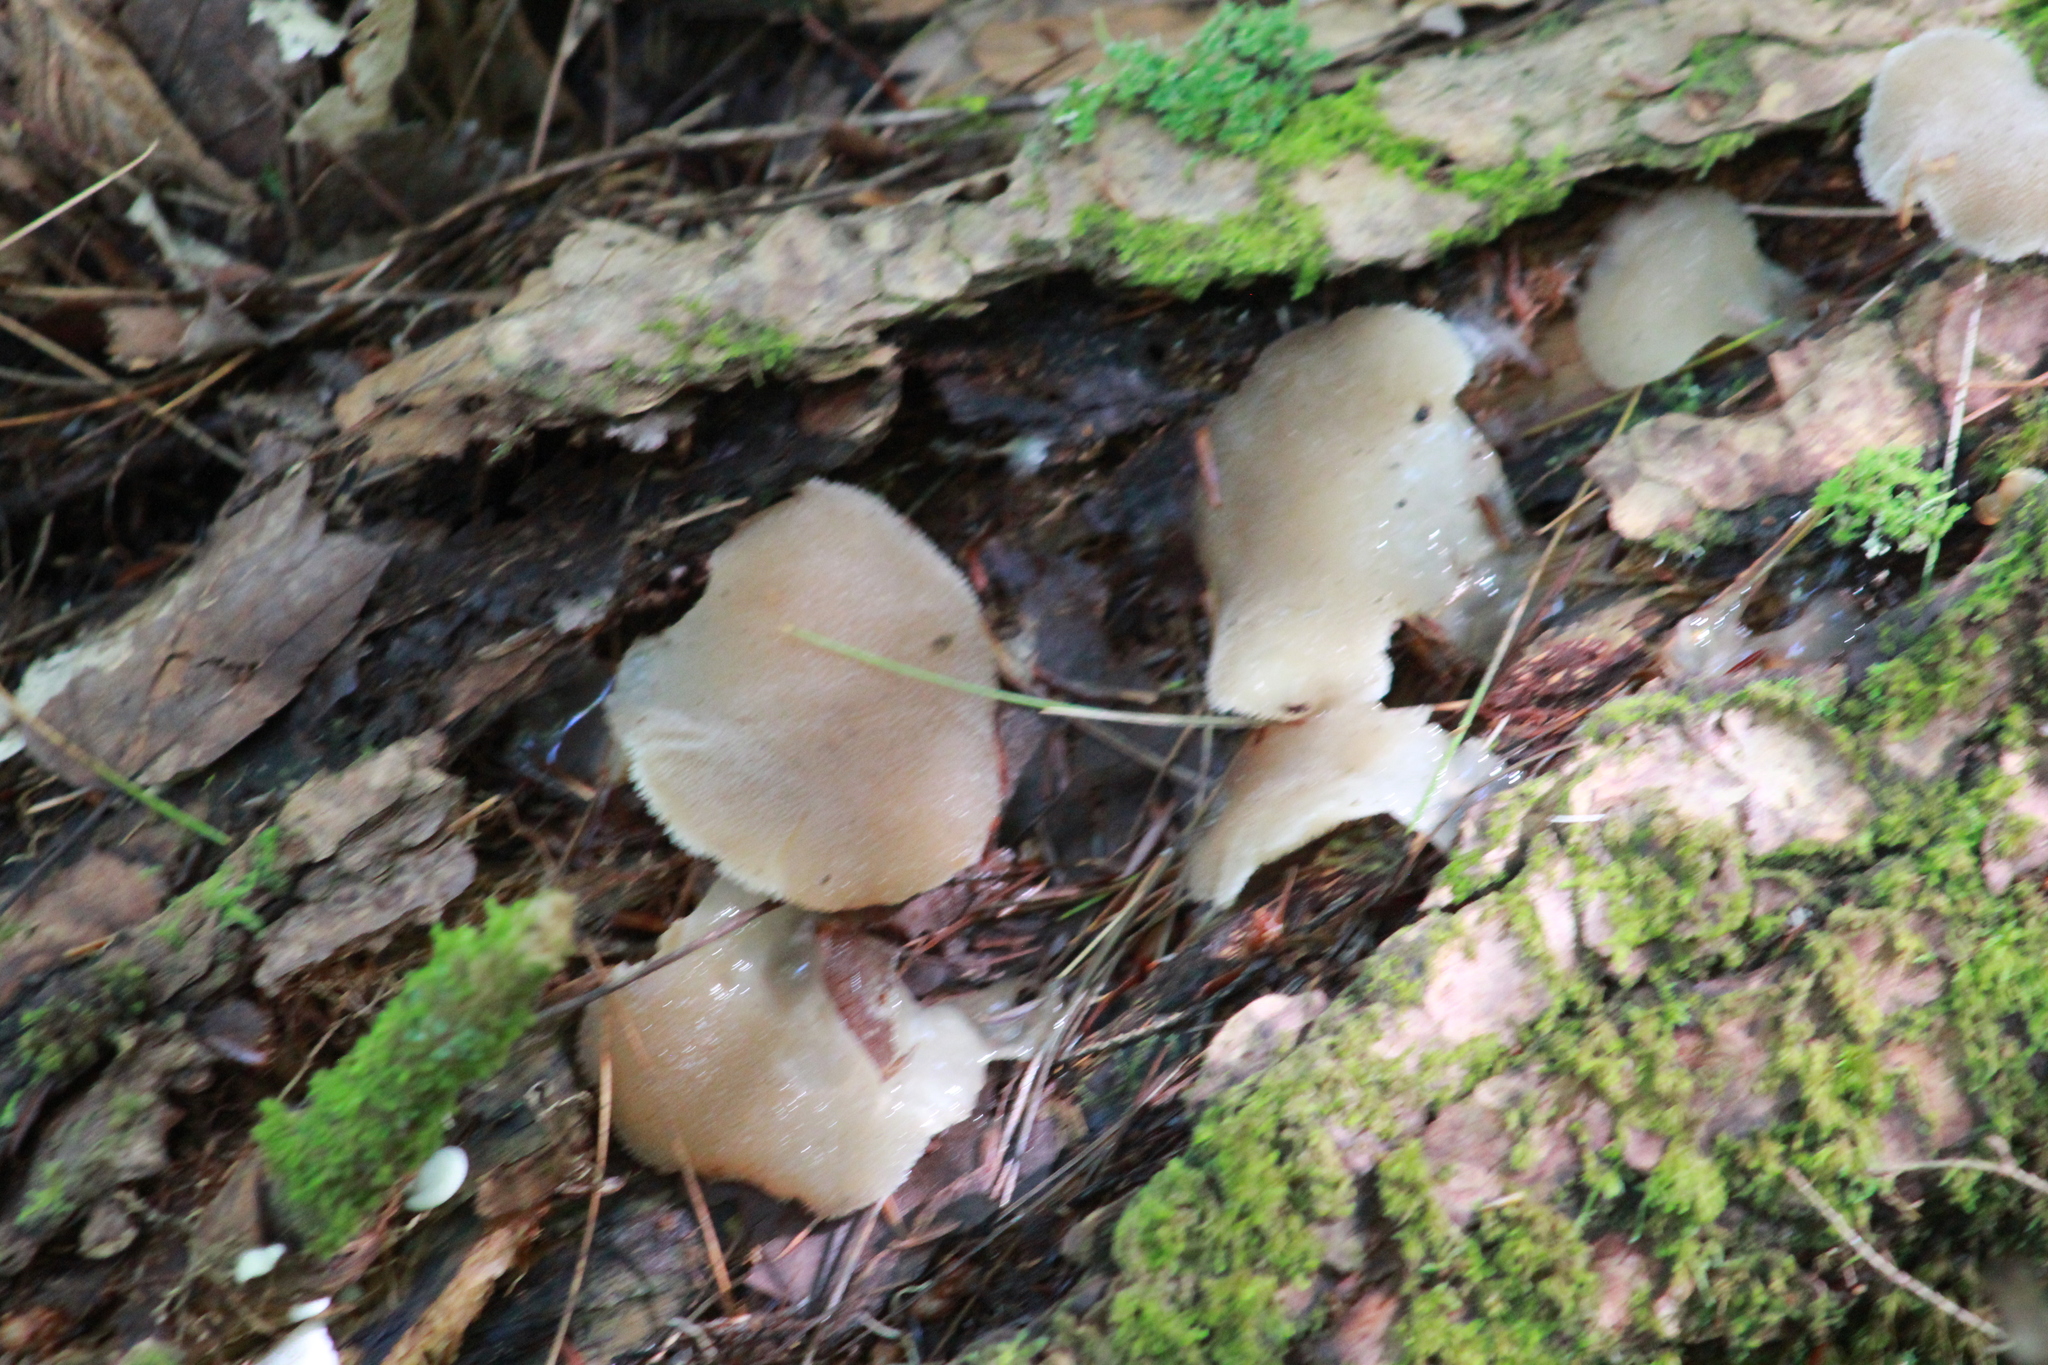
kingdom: Fungi
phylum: Basidiomycota
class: Agaricomycetes
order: Auriculariales
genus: Pseudohydnum
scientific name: Pseudohydnum gelatinosum
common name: Jelly tongue
